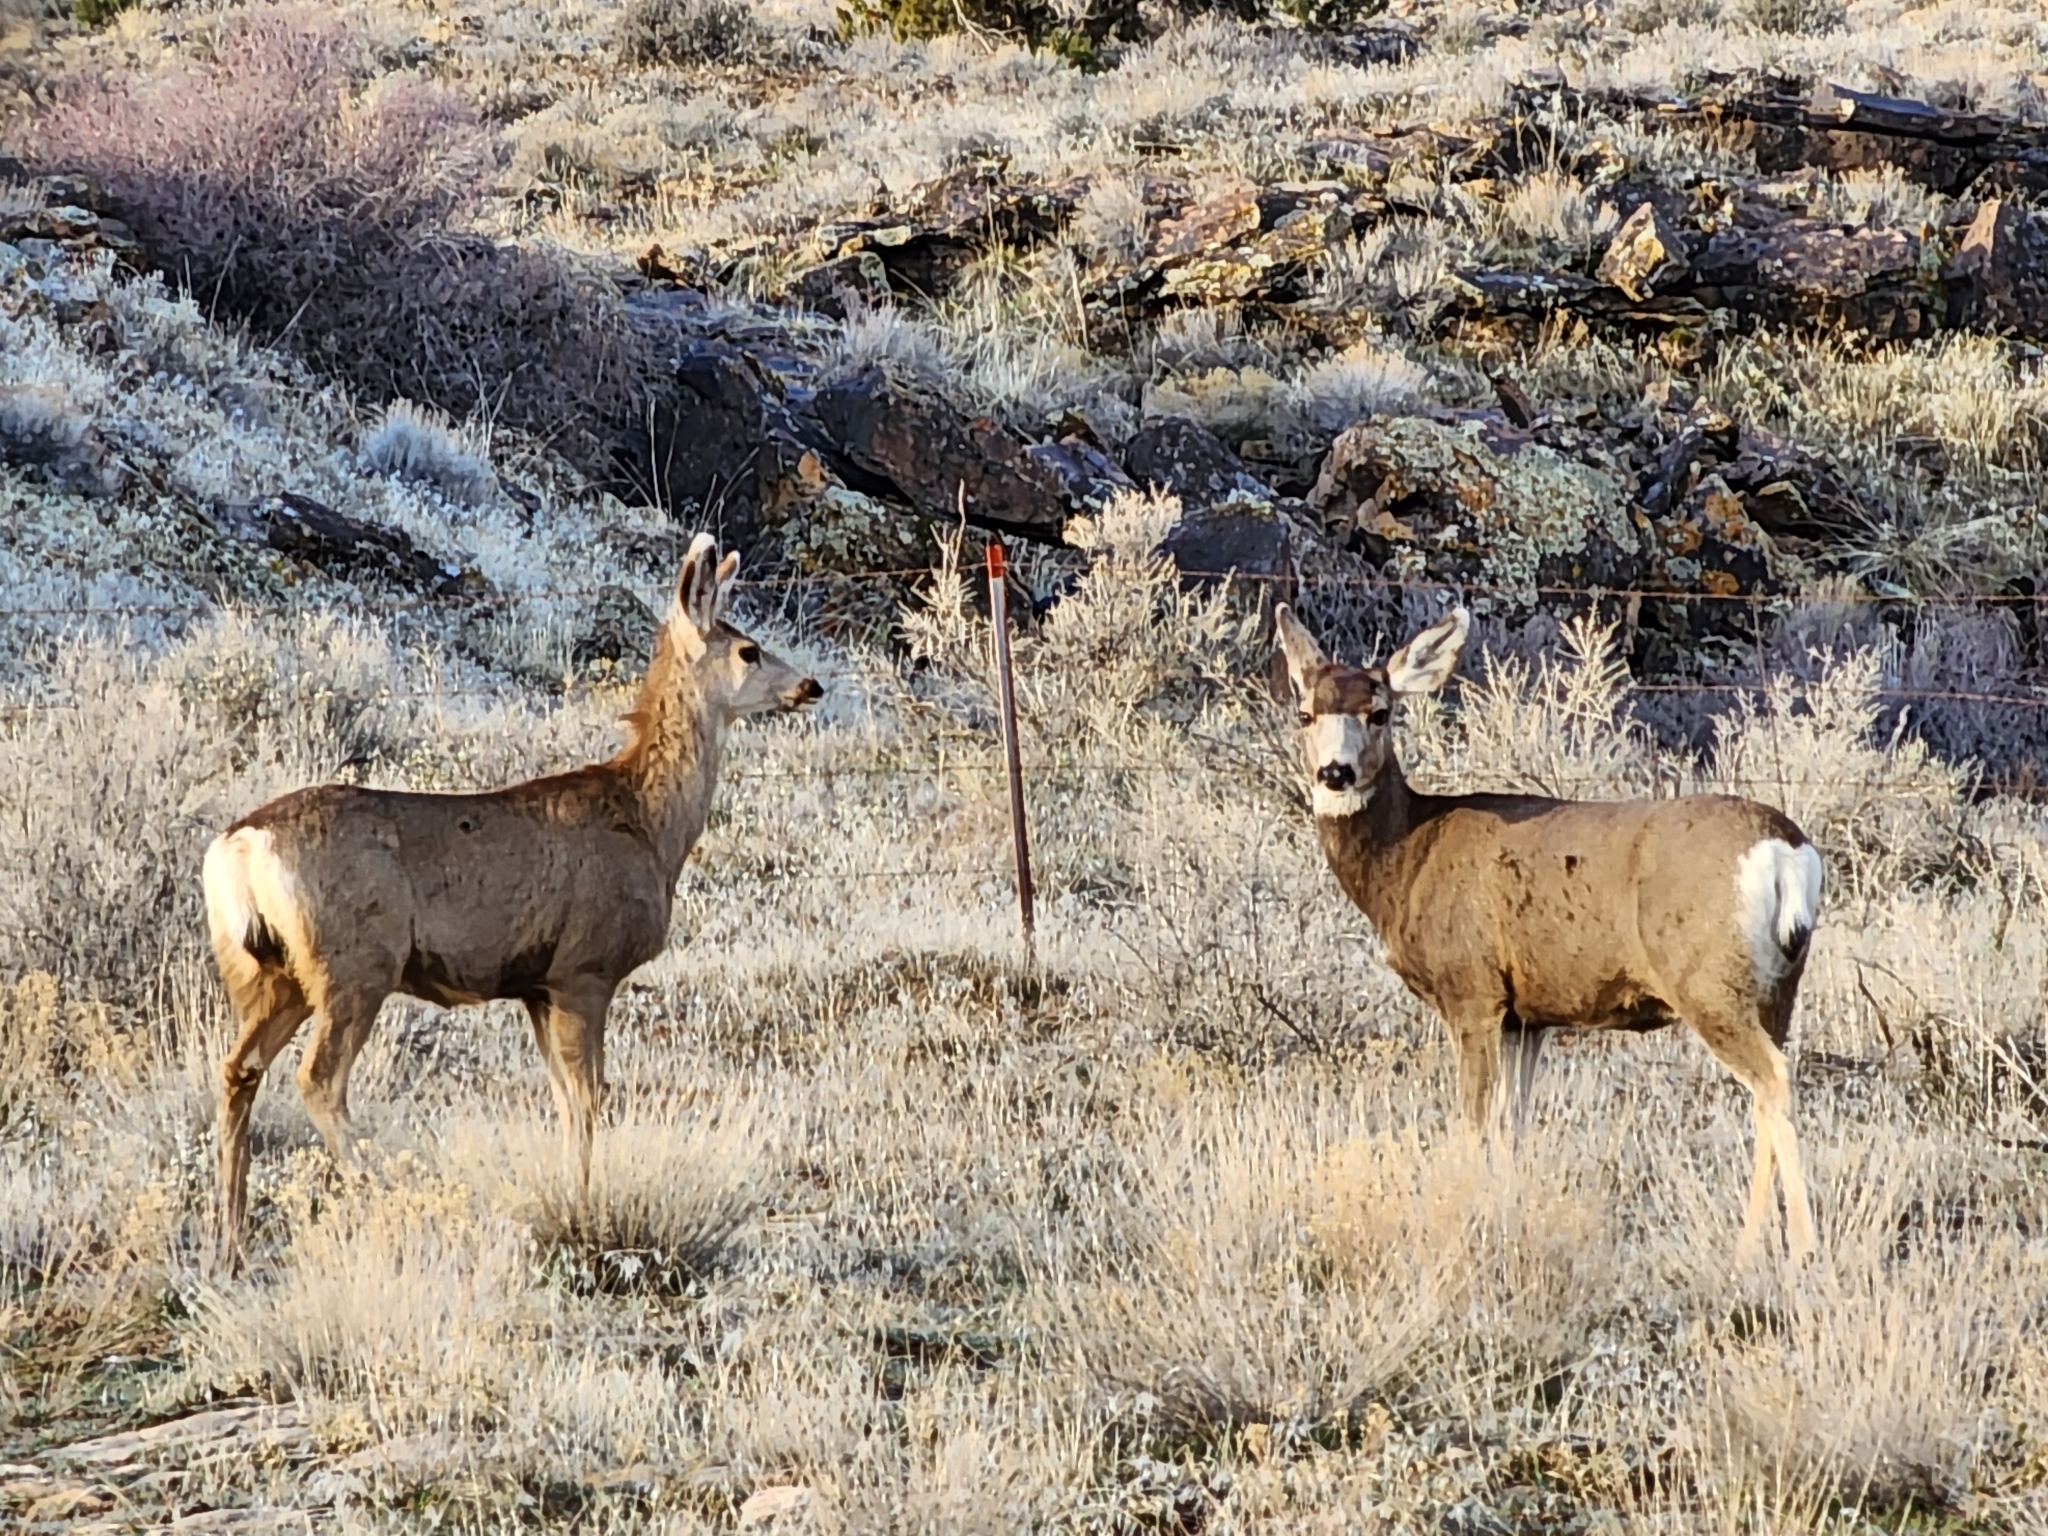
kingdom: Animalia
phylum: Chordata
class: Mammalia
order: Artiodactyla
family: Cervidae
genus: Odocoileus
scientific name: Odocoileus hemionus
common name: Mule deer
